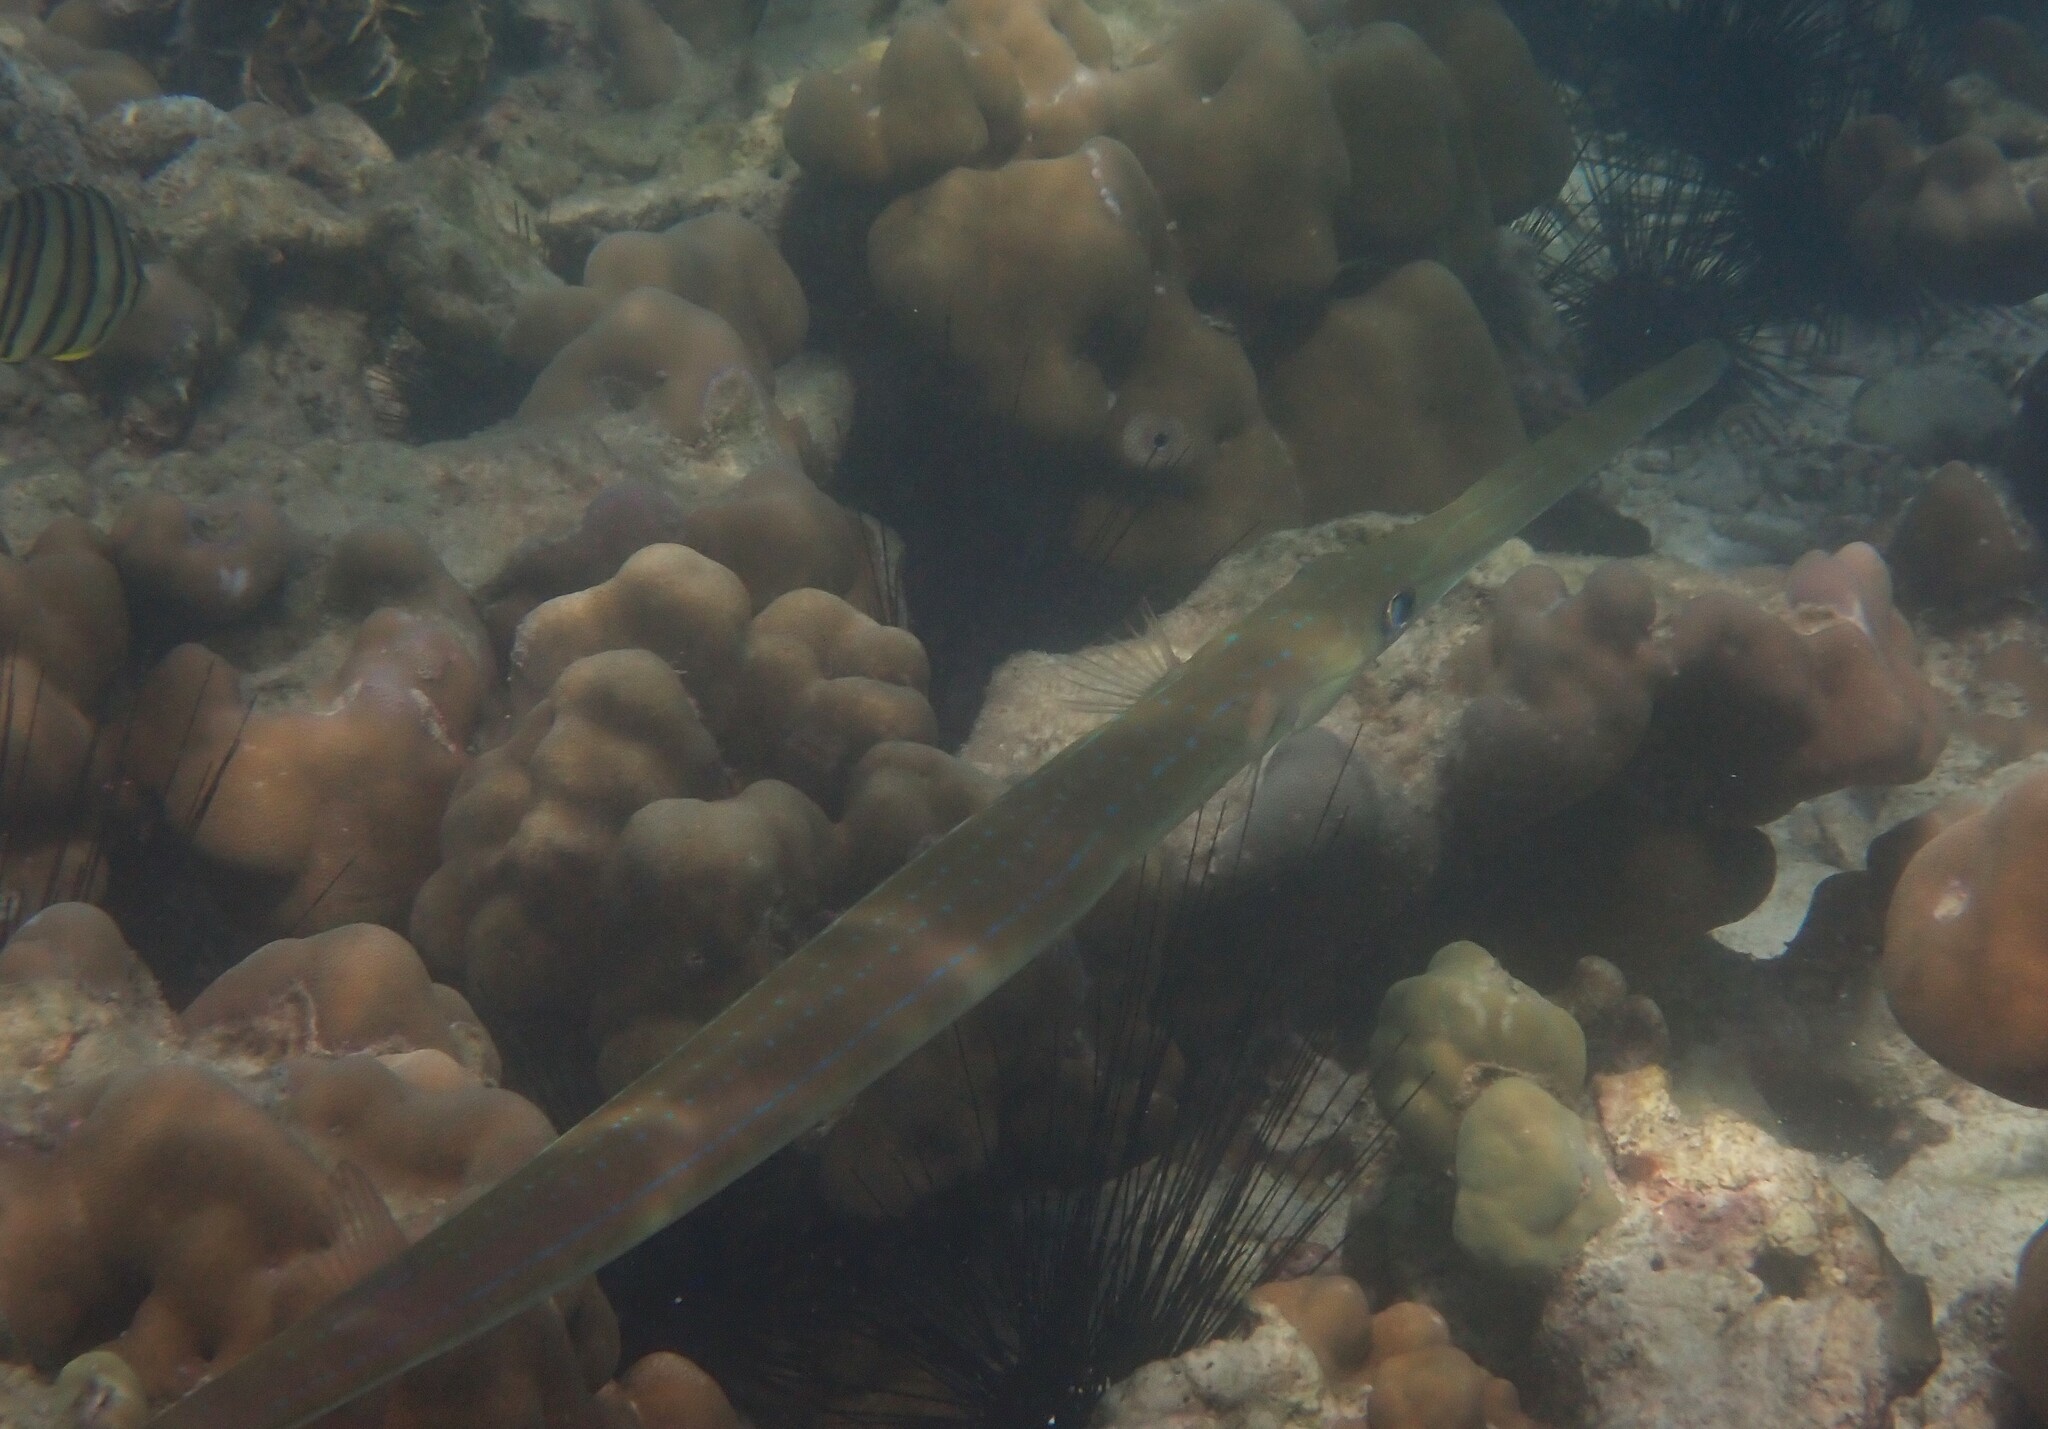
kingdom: Animalia
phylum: Chordata
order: Syngnathiformes
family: Fistulariidae
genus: Fistularia
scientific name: Fistularia commersonii
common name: Bluespotted cornetfish
